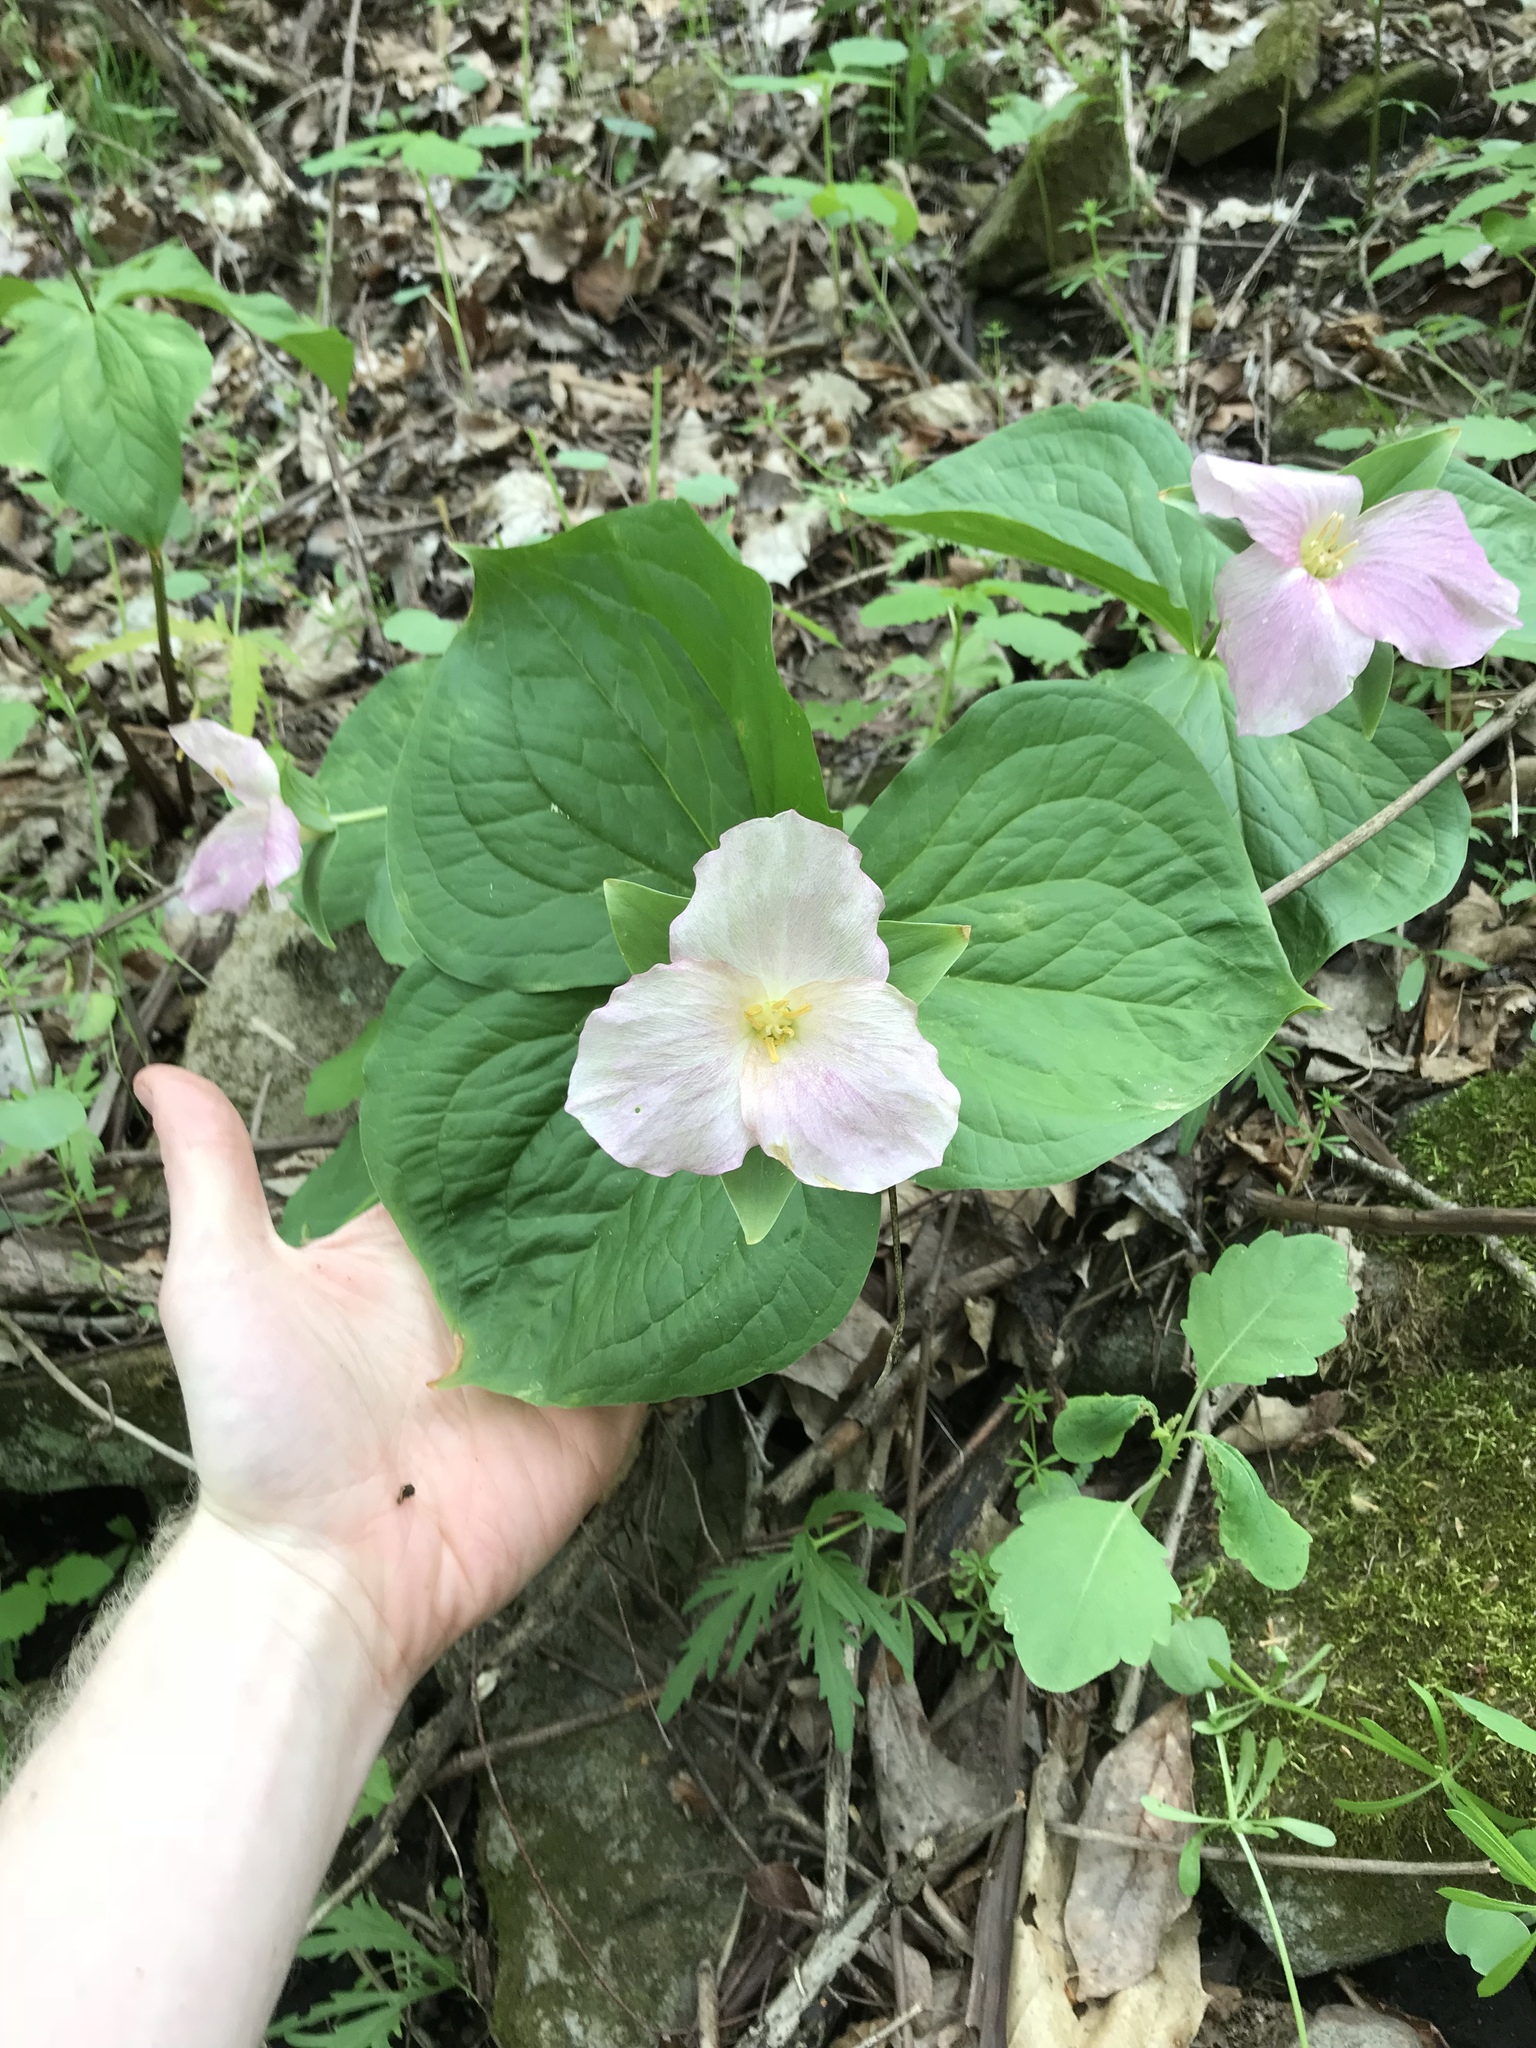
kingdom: Plantae
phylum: Tracheophyta
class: Liliopsida
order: Liliales
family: Melanthiaceae
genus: Trillium
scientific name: Trillium grandiflorum
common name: Great white trillium
